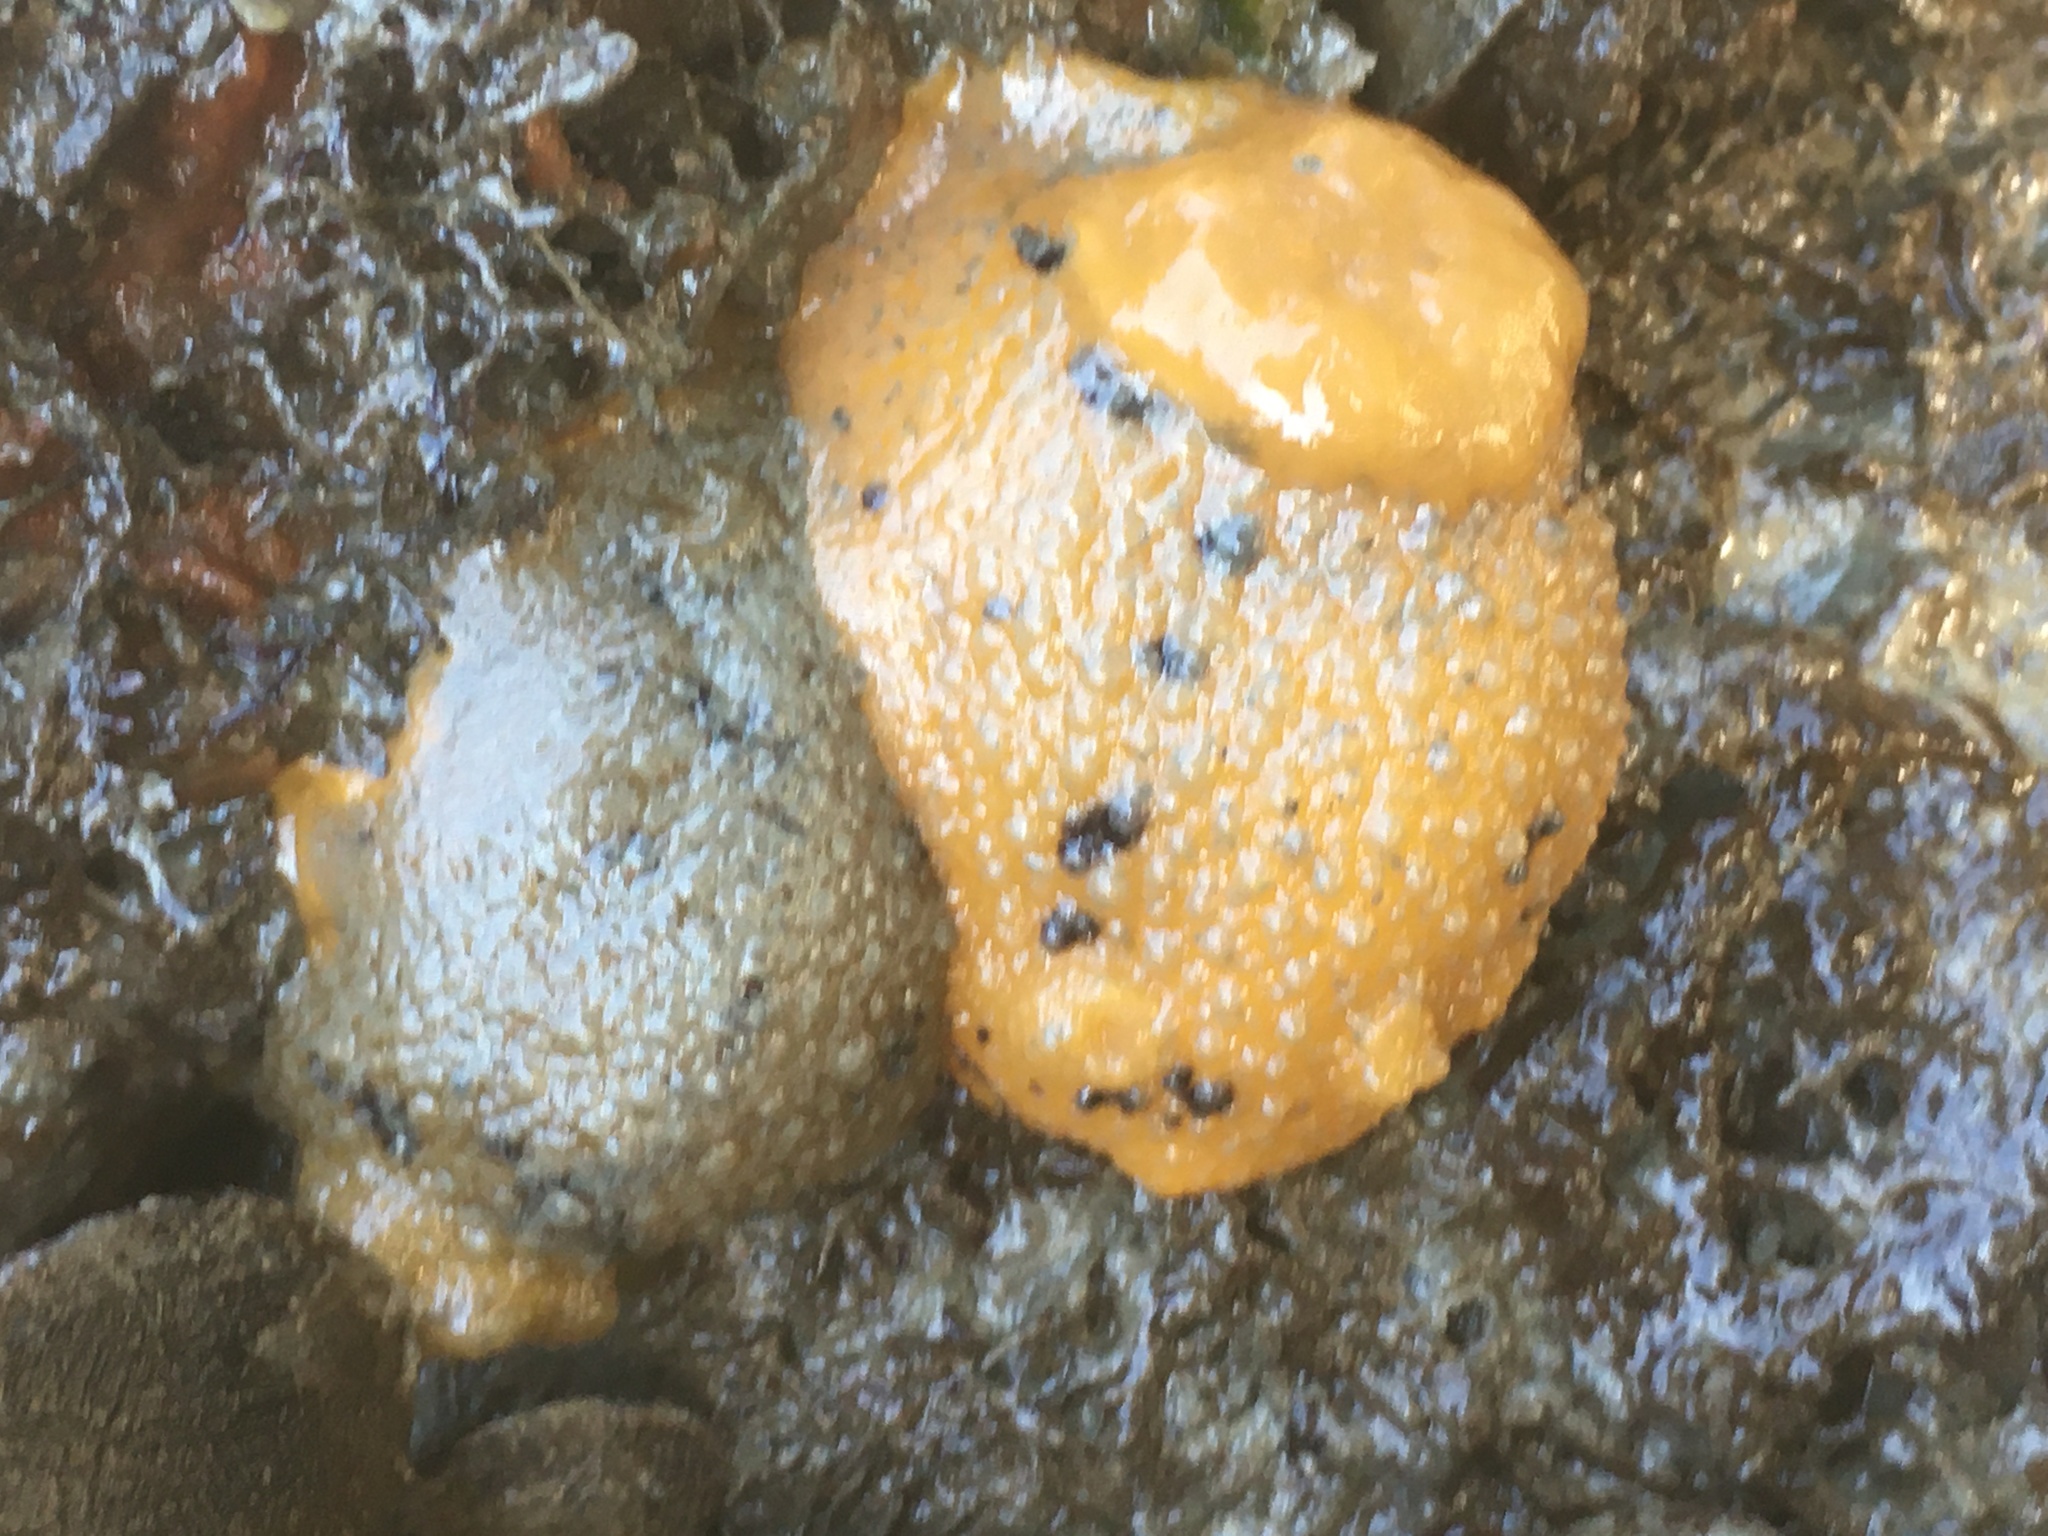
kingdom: Animalia
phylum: Mollusca
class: Gastropoda
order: Nudibranchia
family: Dorididae
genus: Doris
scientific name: Doris montereyensis
